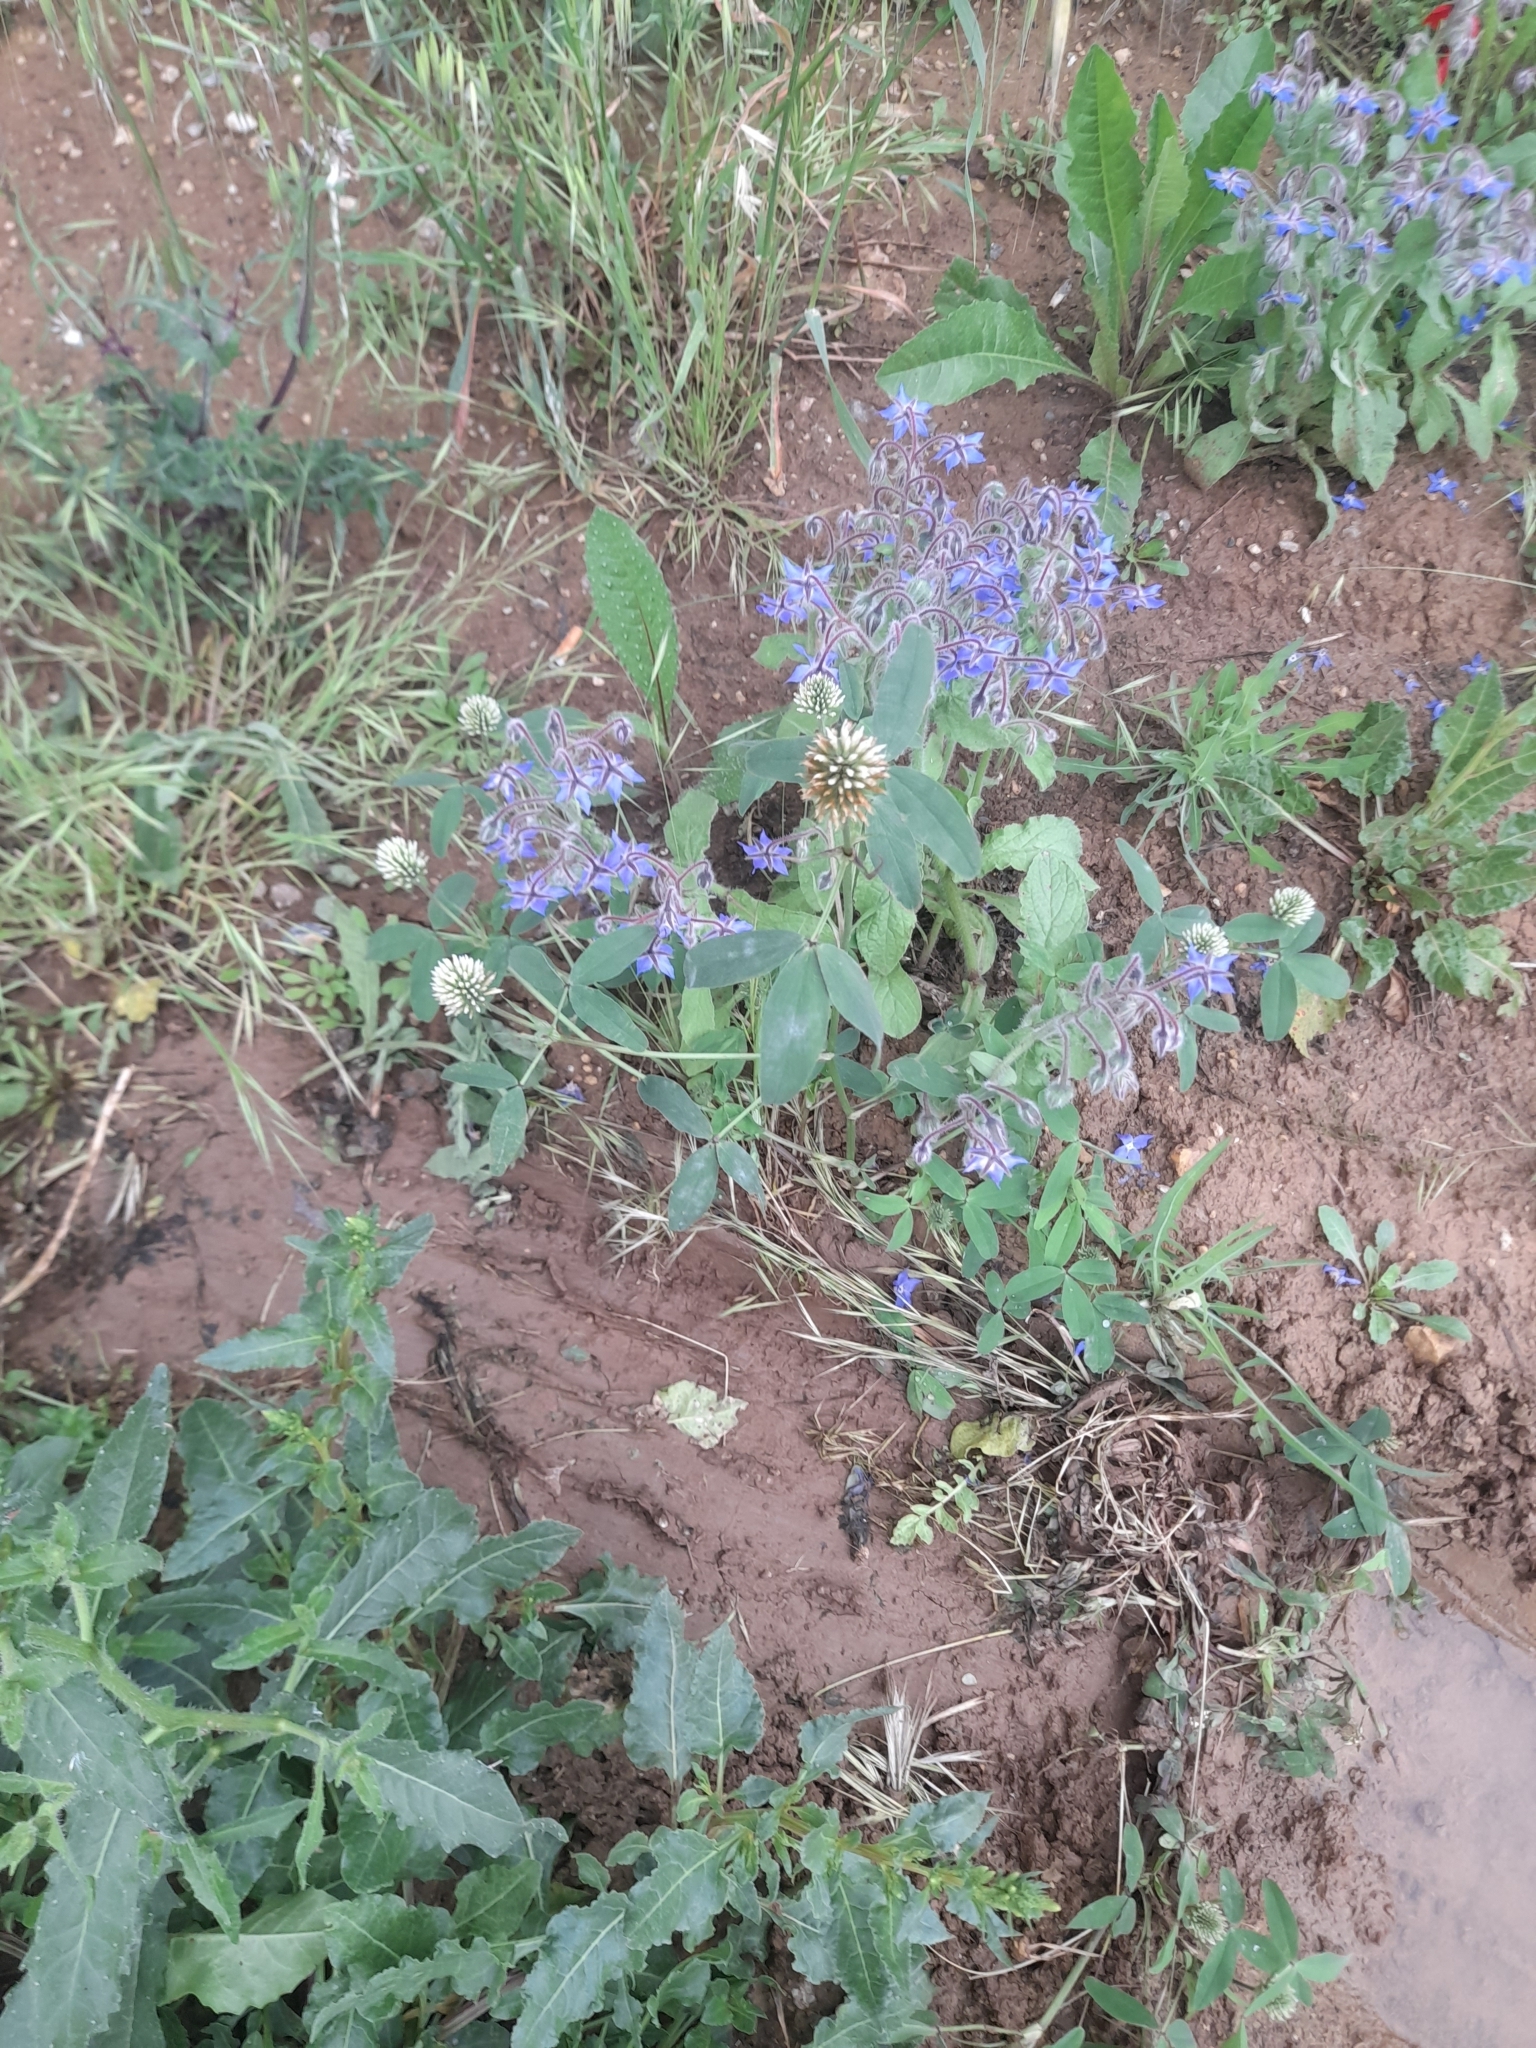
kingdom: Plantae
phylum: Tracheophyta
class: Magnoliopsida
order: Fabales
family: Fabaceae
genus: Trifolium
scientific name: Trifolium squarrosum
